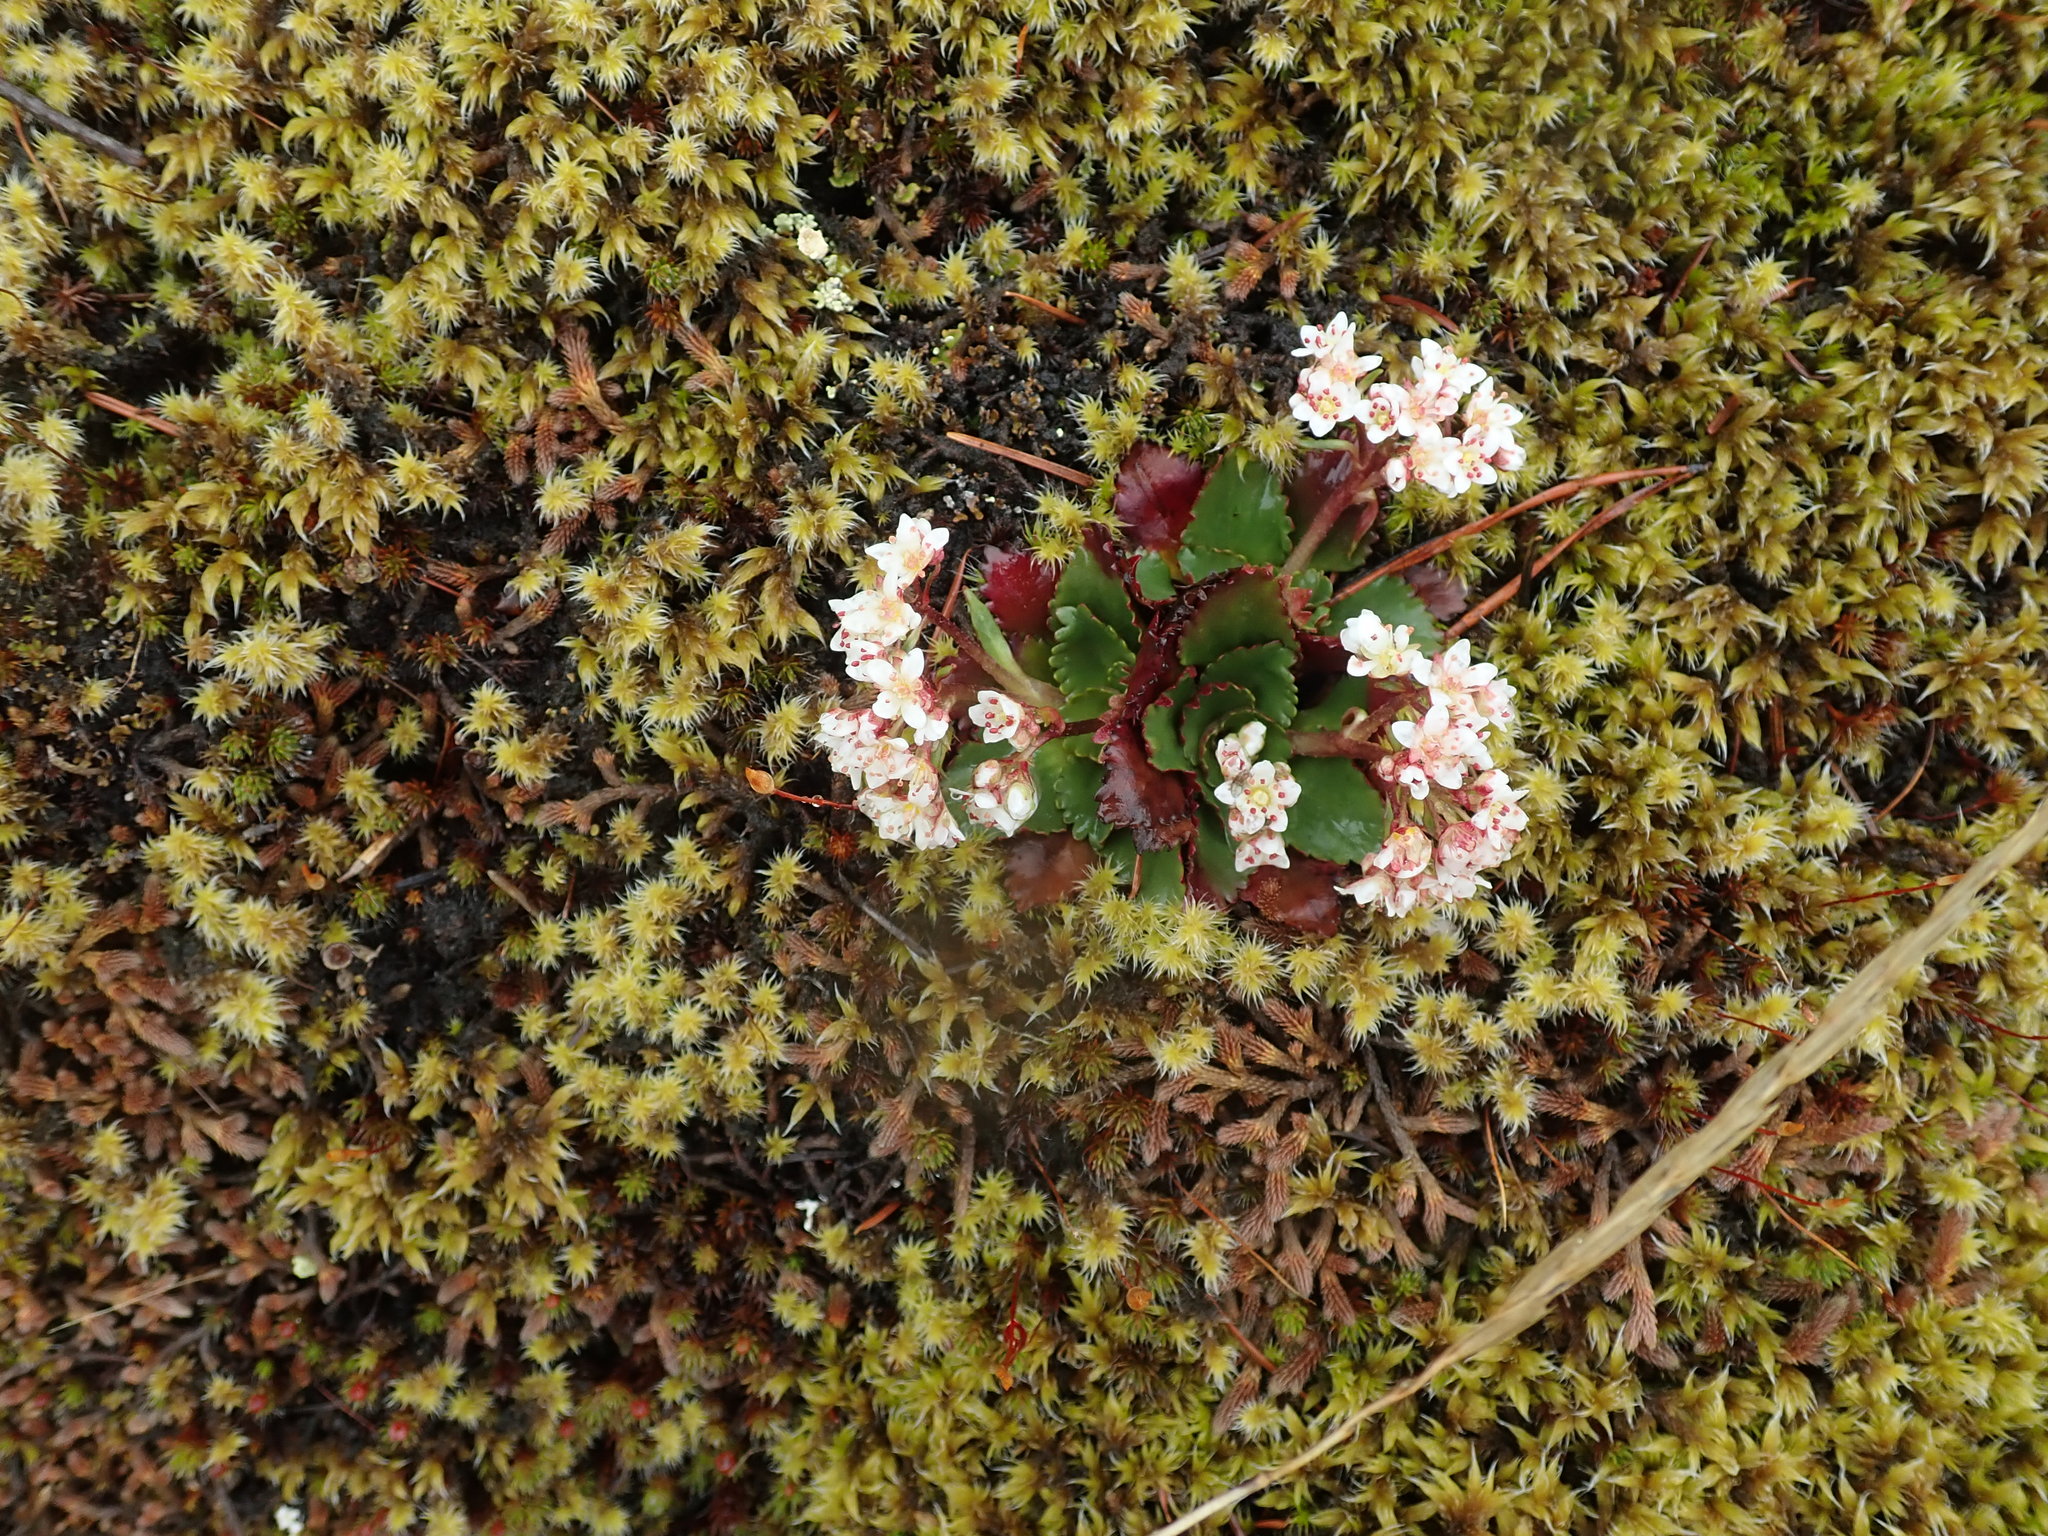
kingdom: Plantae
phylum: Tracheophyta
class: Magnoliopsida
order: Saxifragales
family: Saxifragaceae
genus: Micranthes
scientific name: Micranthes rufidula
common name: Rustyhair saxifrage
